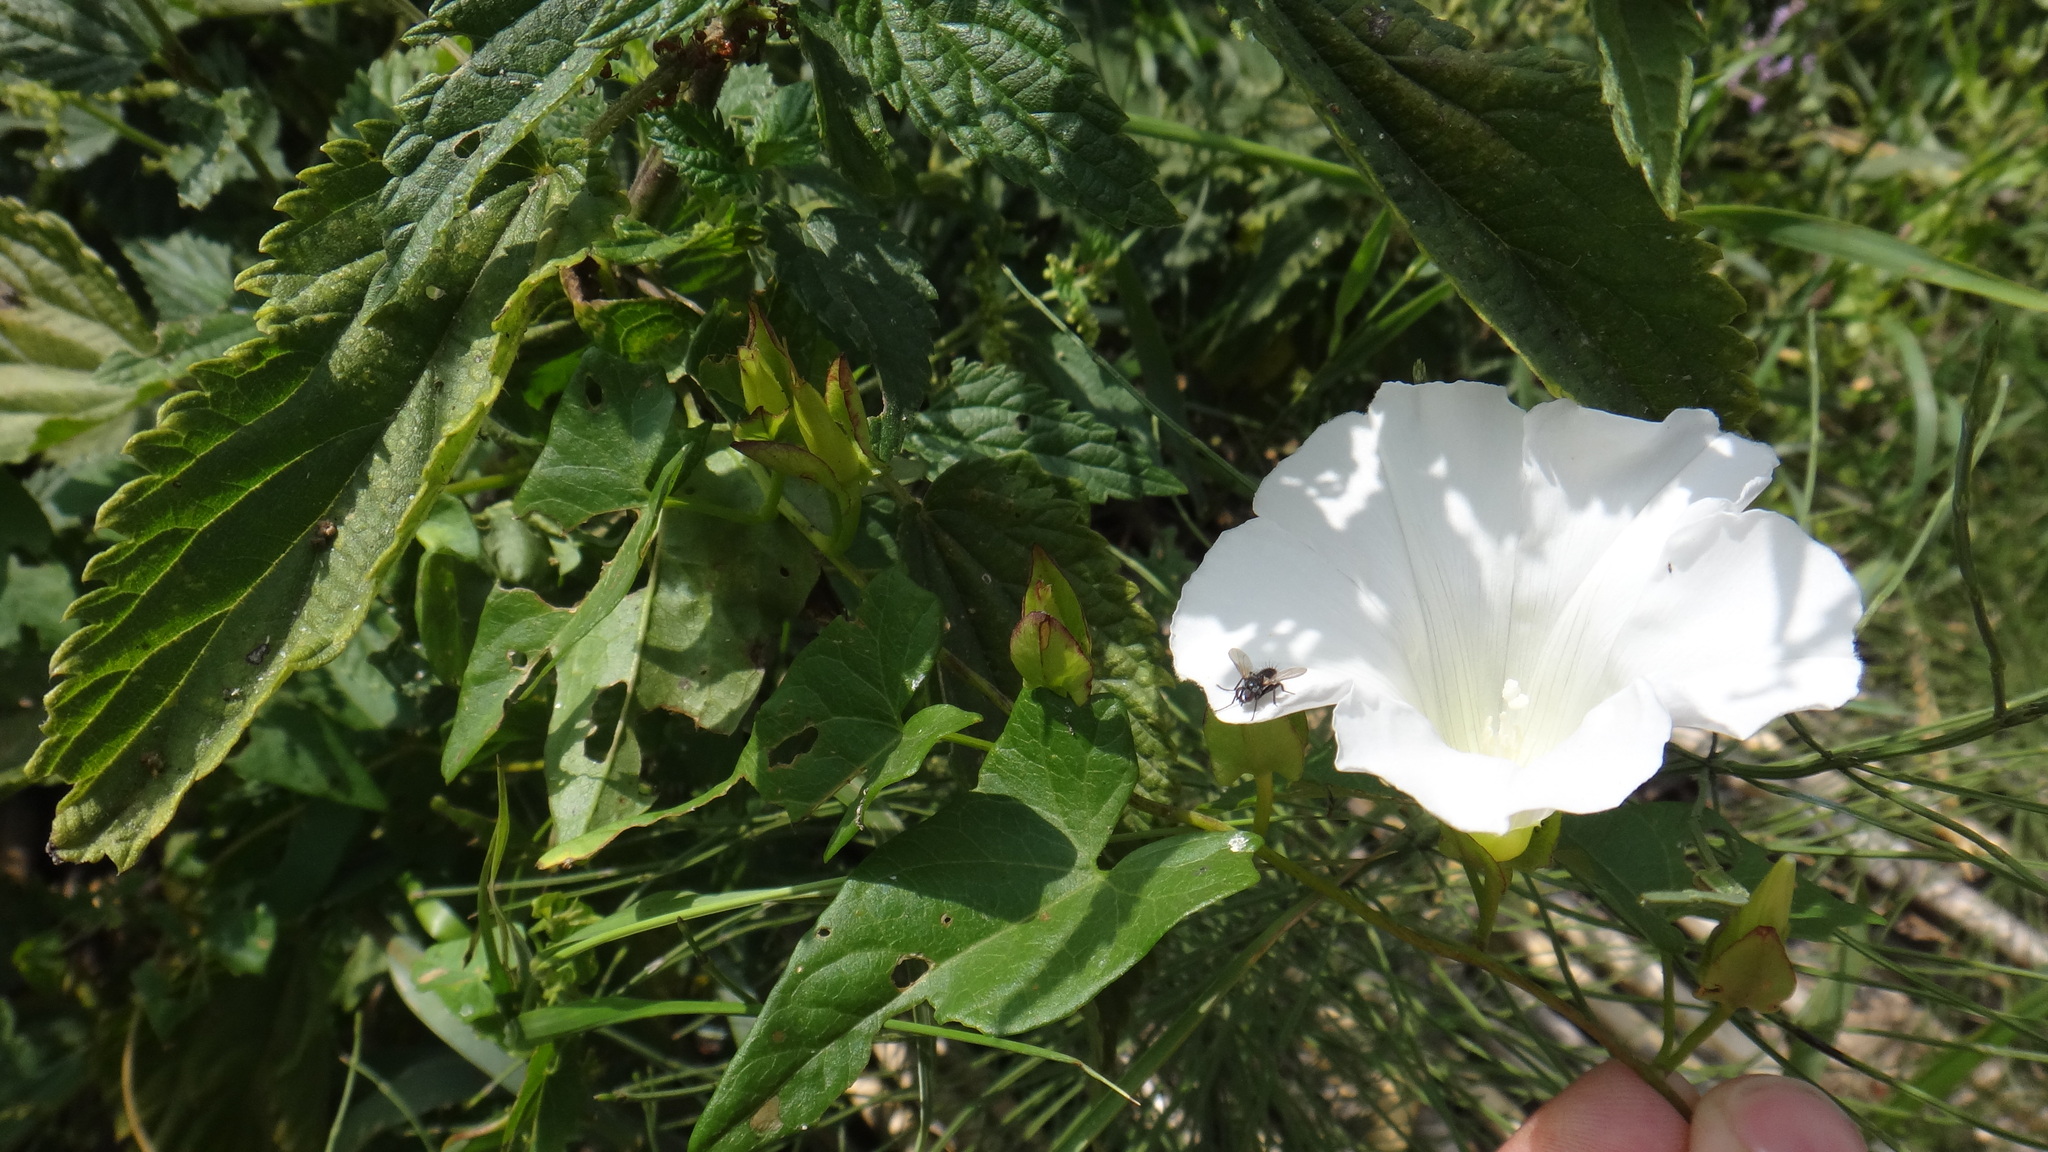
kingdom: Plantae
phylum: Tracheophyta
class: Magnoliopsida
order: Solanales
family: Convolvulaceae
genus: Calystegia
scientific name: Calystegia sepium
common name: Hedge bindweed
